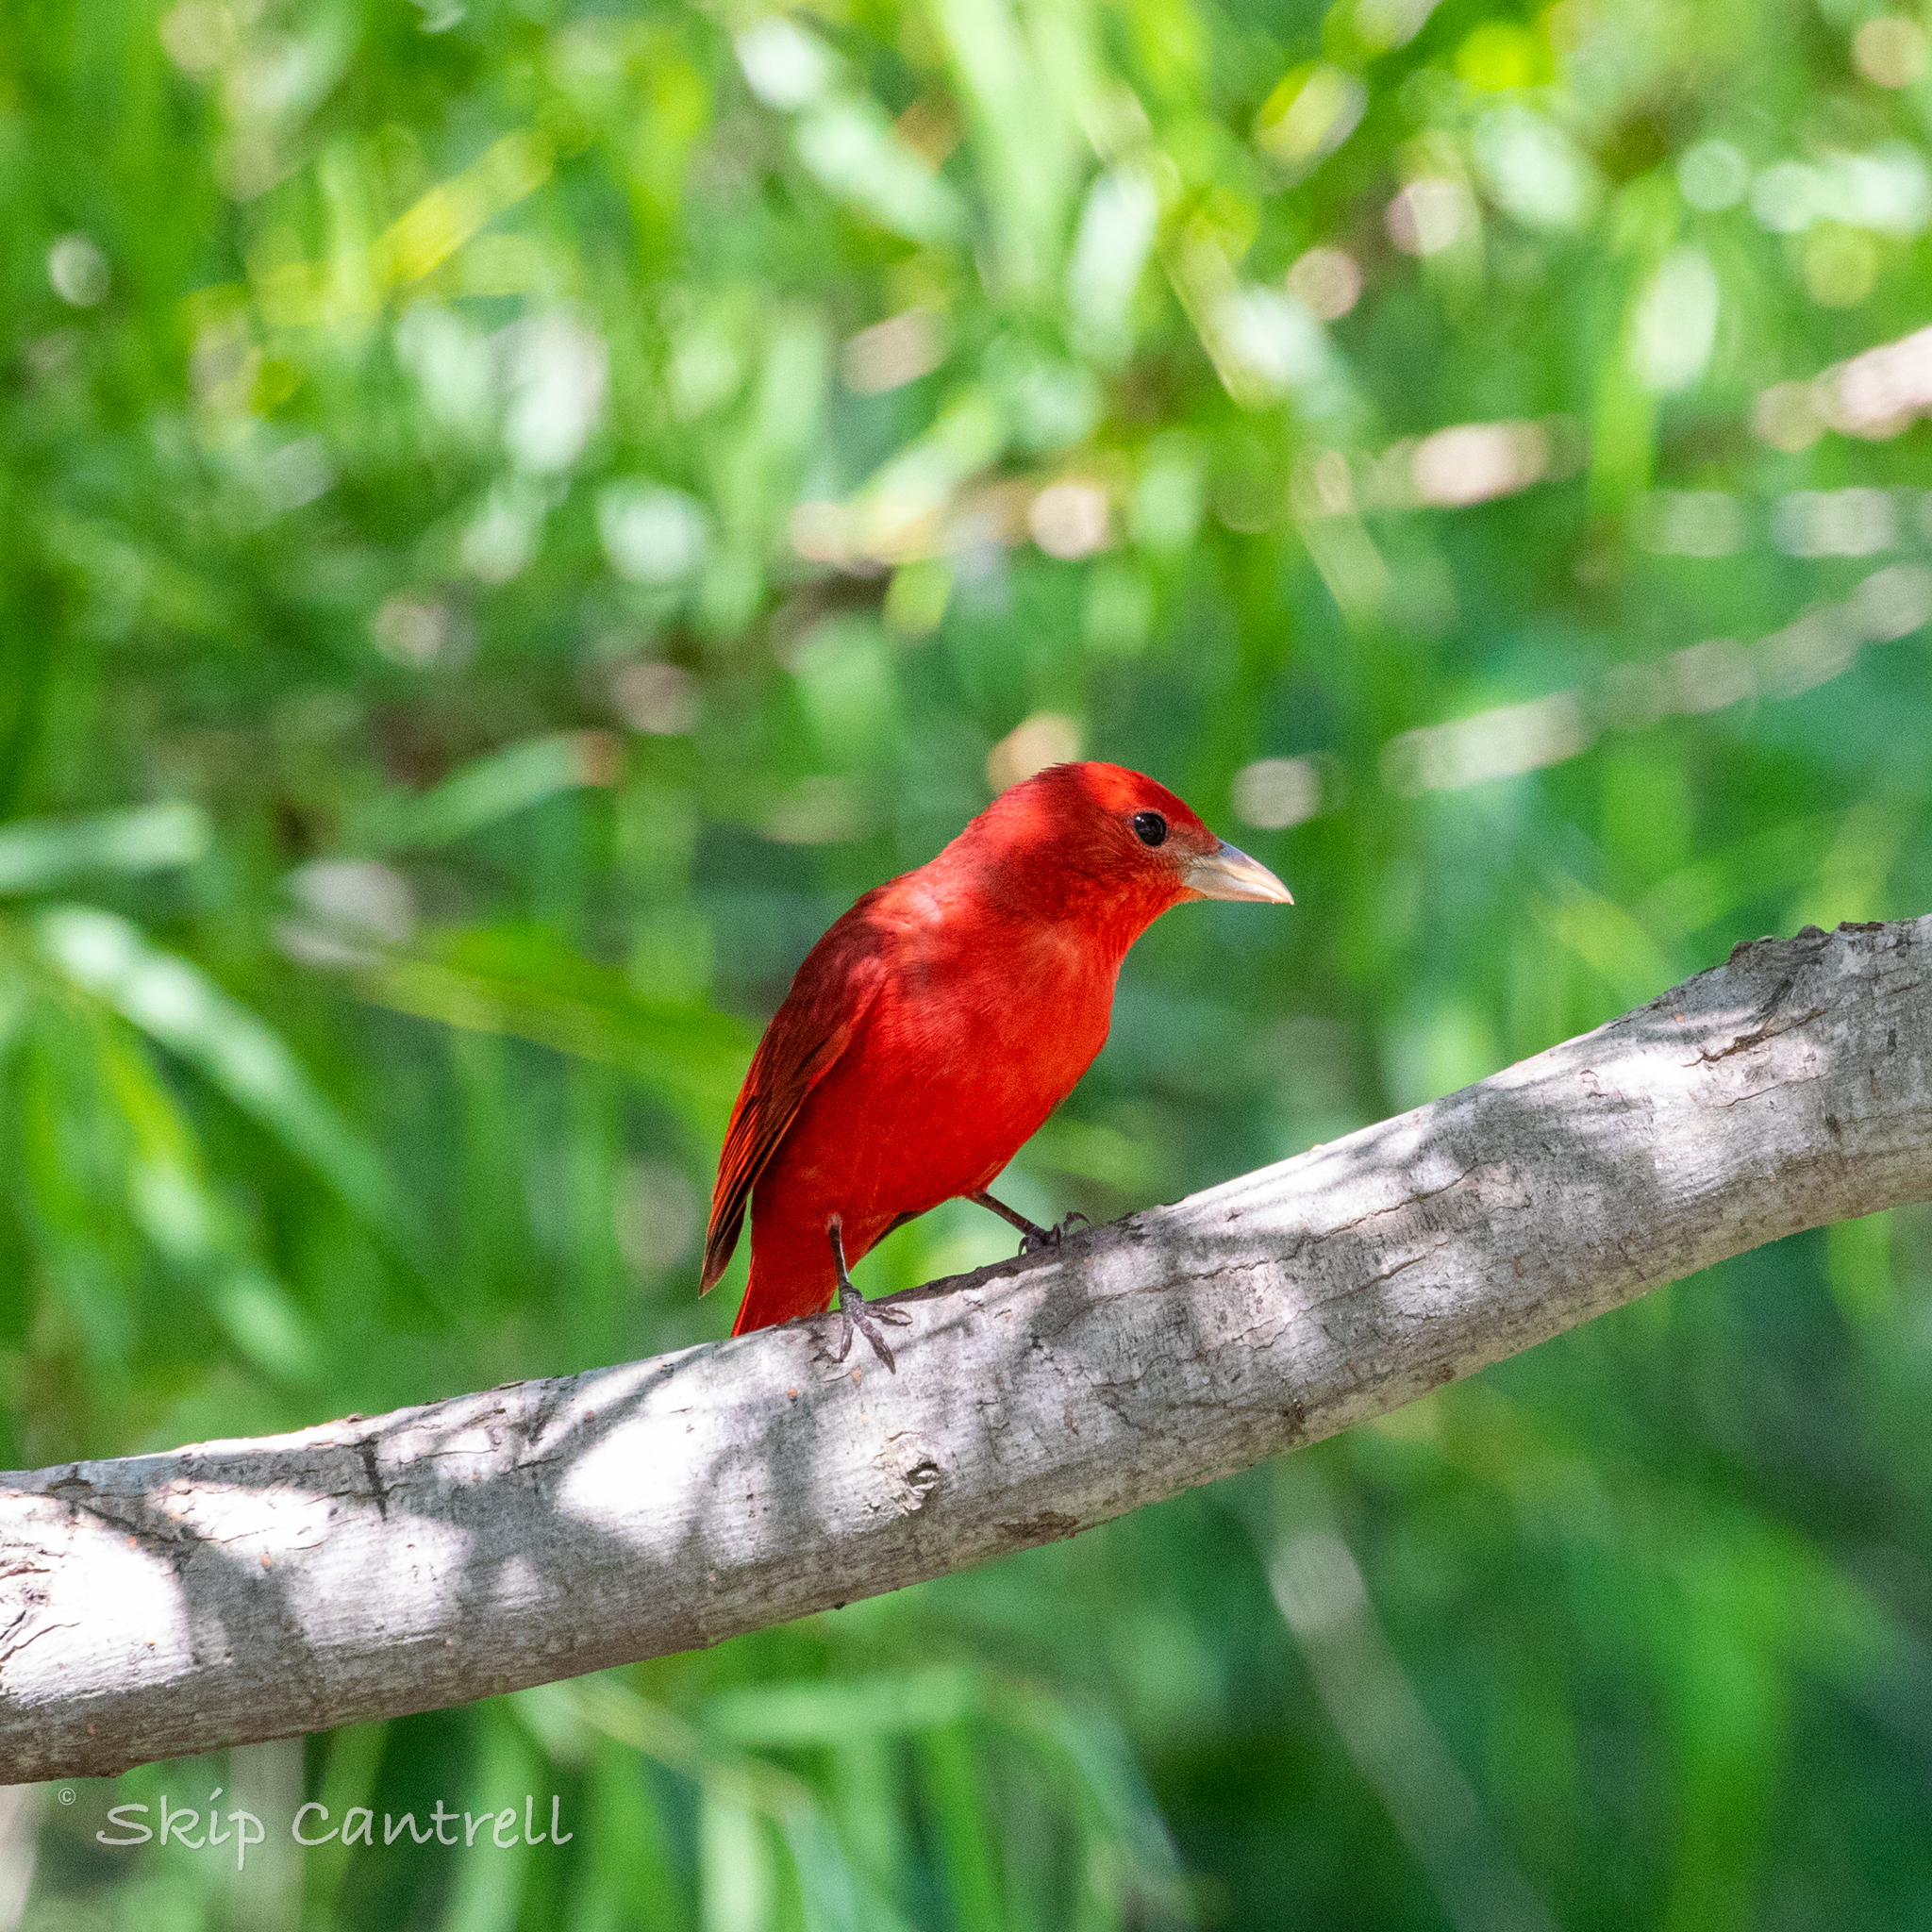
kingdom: Animalia
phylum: Chordata
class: Aves
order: Passeriformes
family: Cardinalidae
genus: Piranga
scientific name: Piranga rubra
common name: Summer tanager
